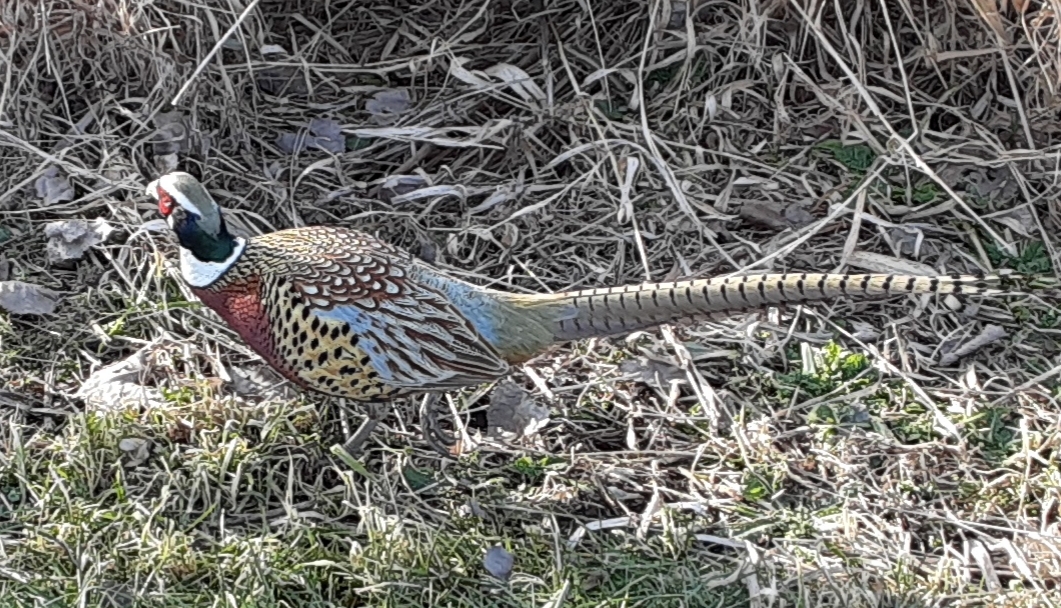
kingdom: Animalia
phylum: Chordata
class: Aves
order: Galliformes
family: Phasianidae
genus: Phasianus
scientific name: Phasianus colchicus
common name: Common pheasant
